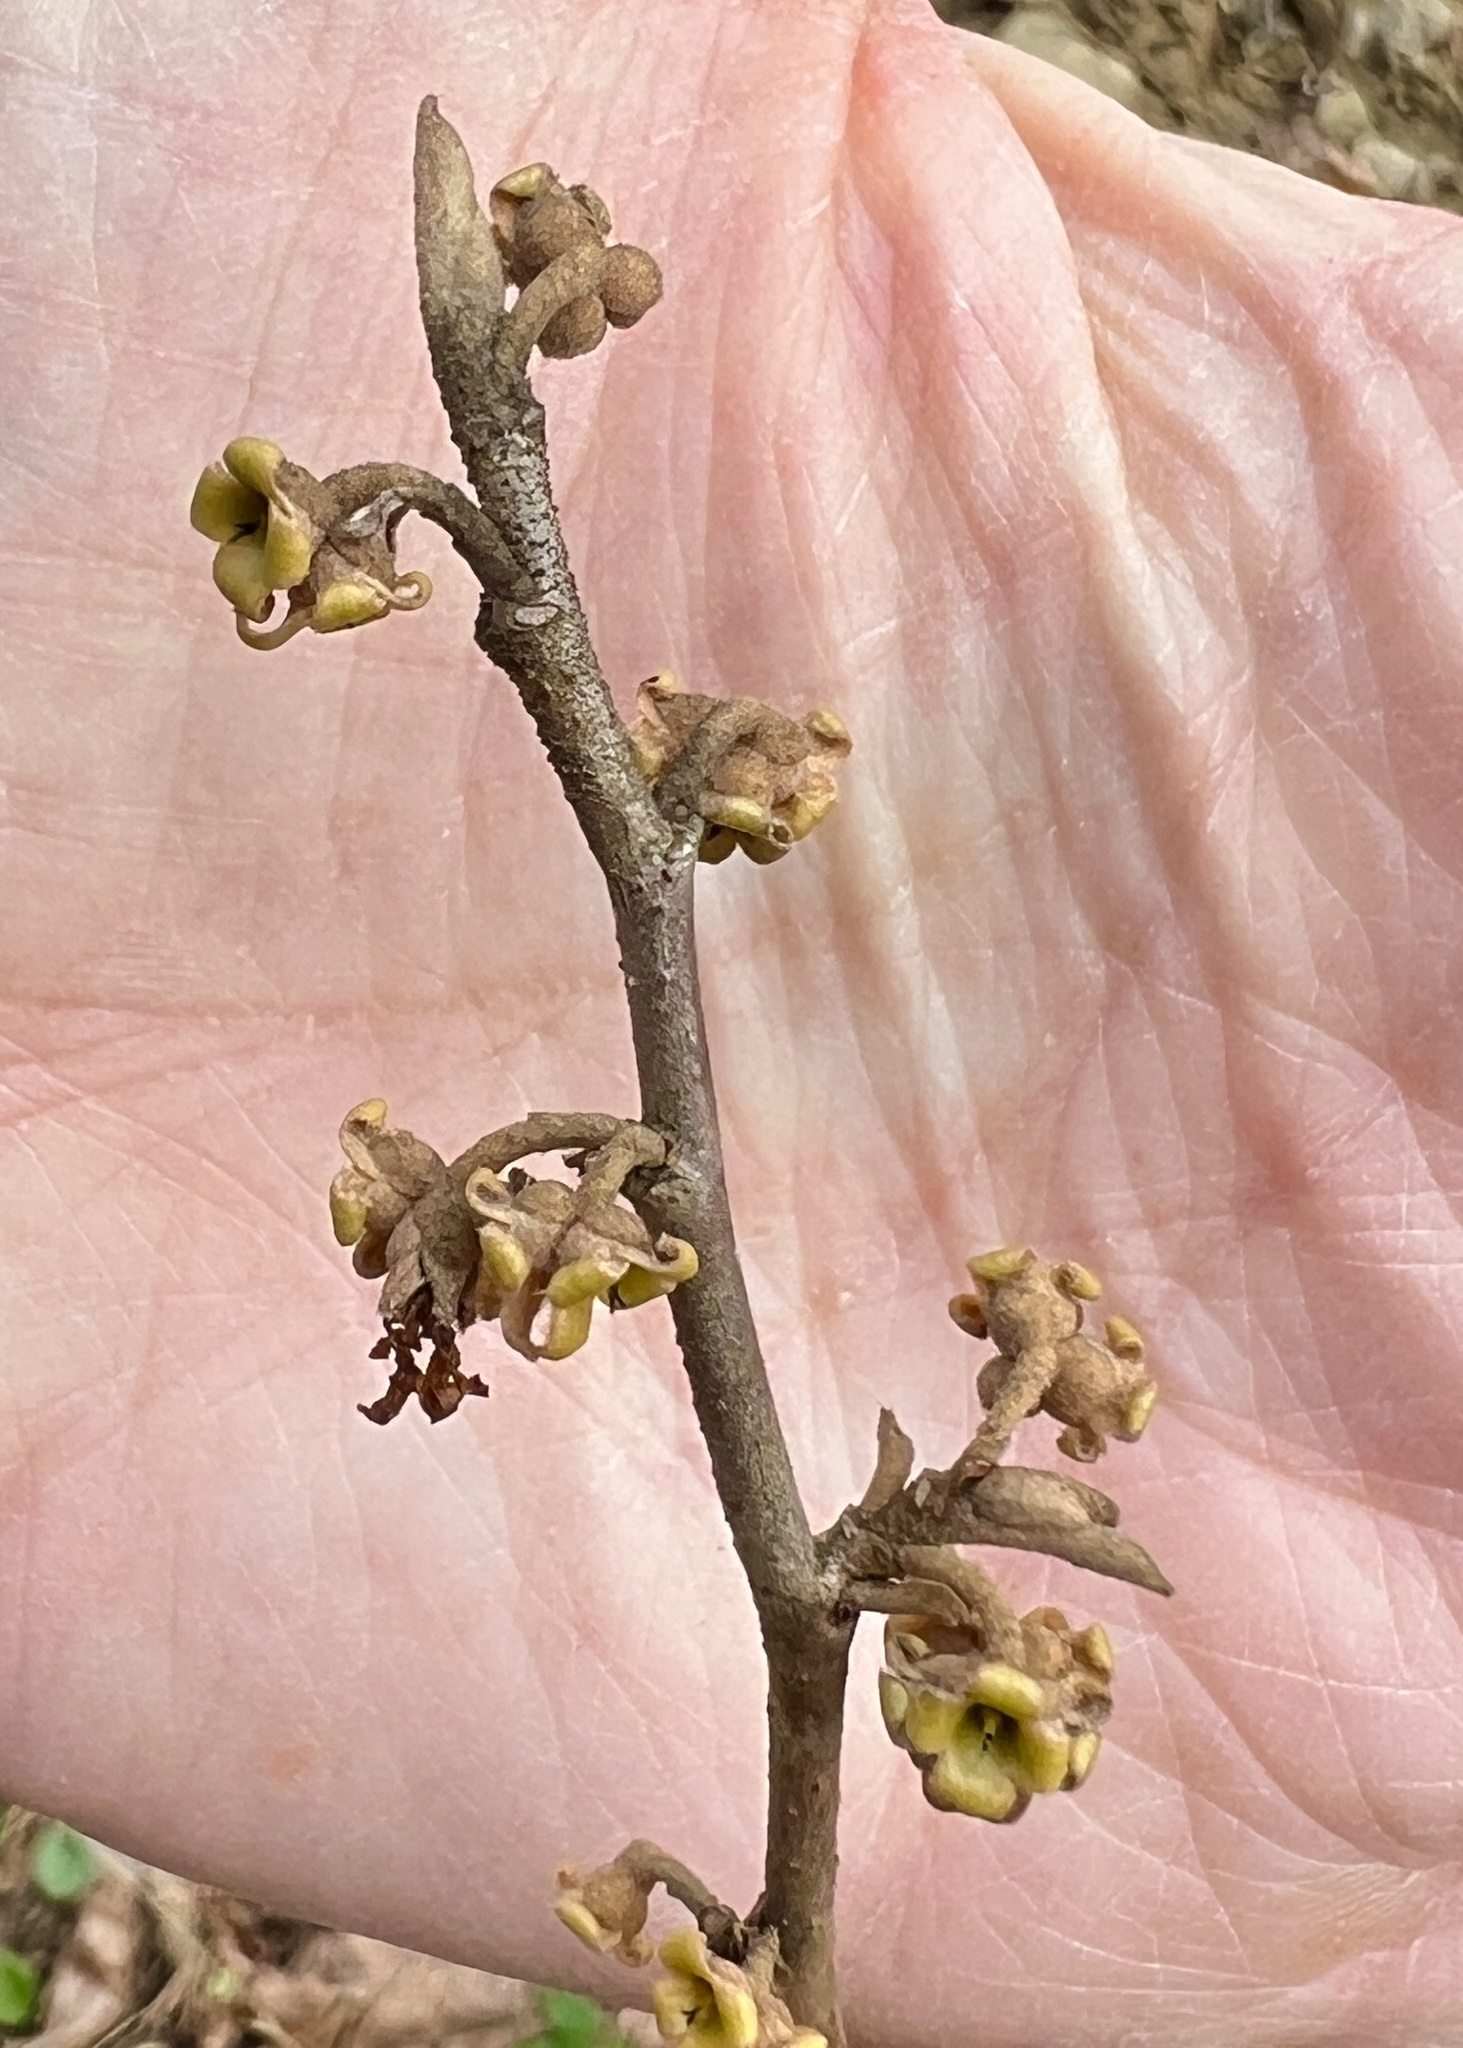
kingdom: Plantae
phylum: Tracheophyta
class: Magnoliopsida
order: Saxifragales
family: Hamamelidaceae
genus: Hamamelis
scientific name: Hamamelis virginiana
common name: Witch-hazel
